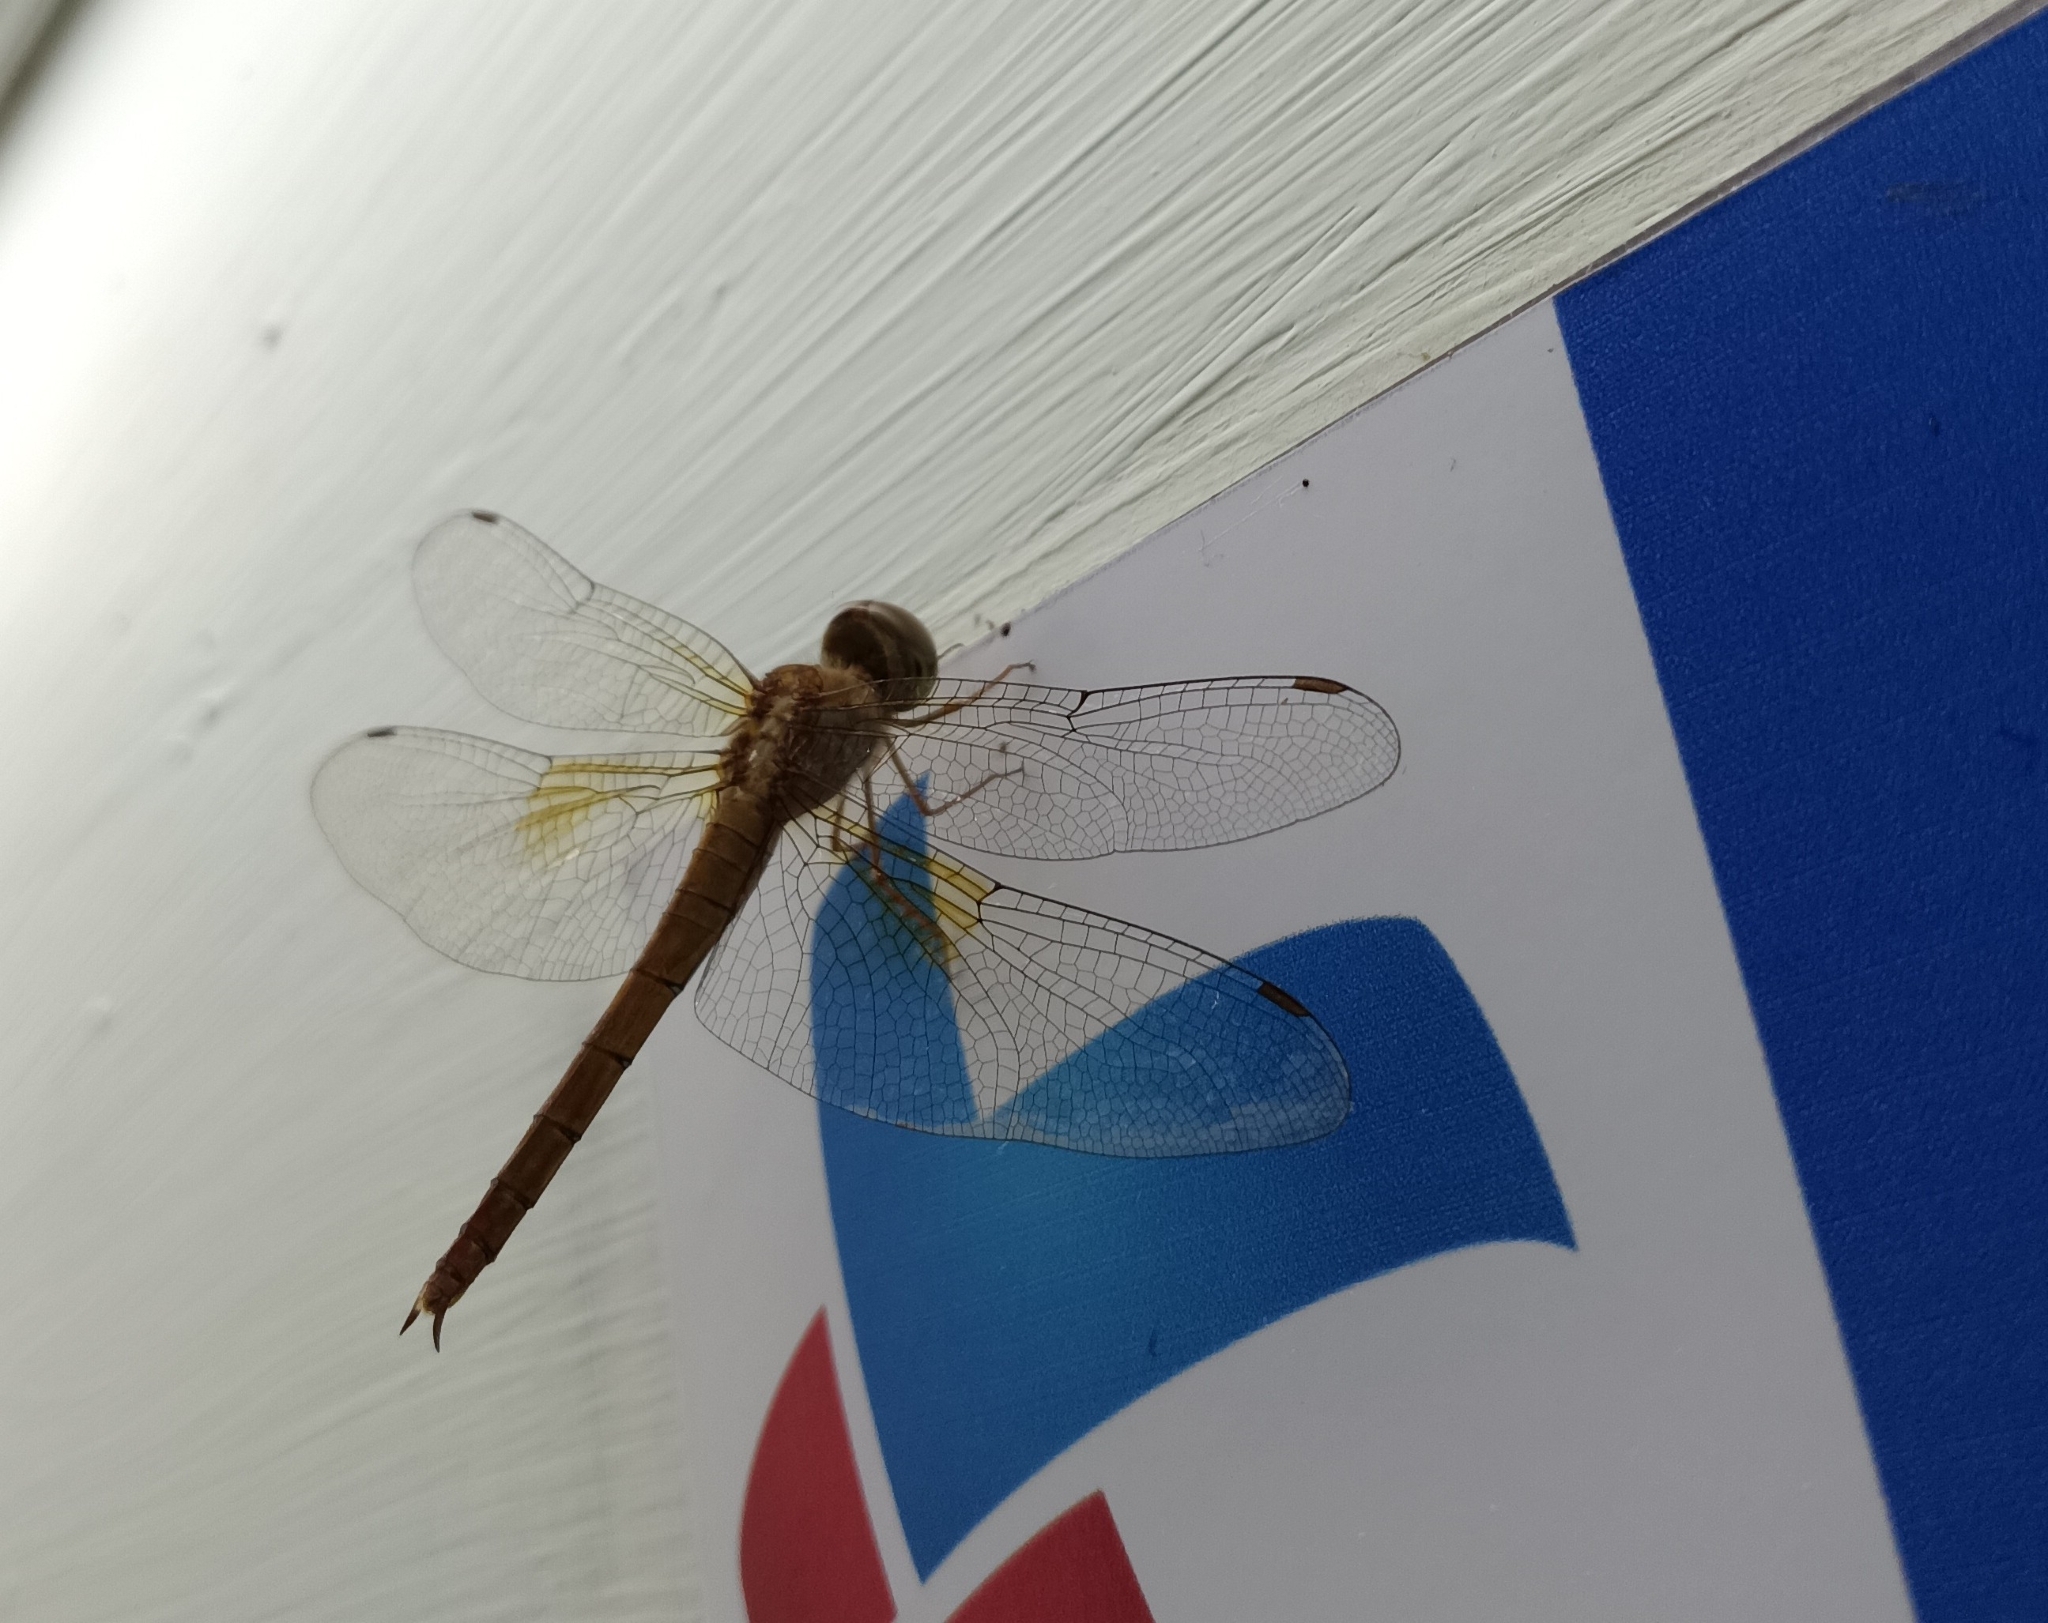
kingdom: Animalia
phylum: Arthropoda
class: Insecta
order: Odonata
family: Libellulidae
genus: Tholymis
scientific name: Tholymis tillarga
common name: Coral-tailed cloud wing
